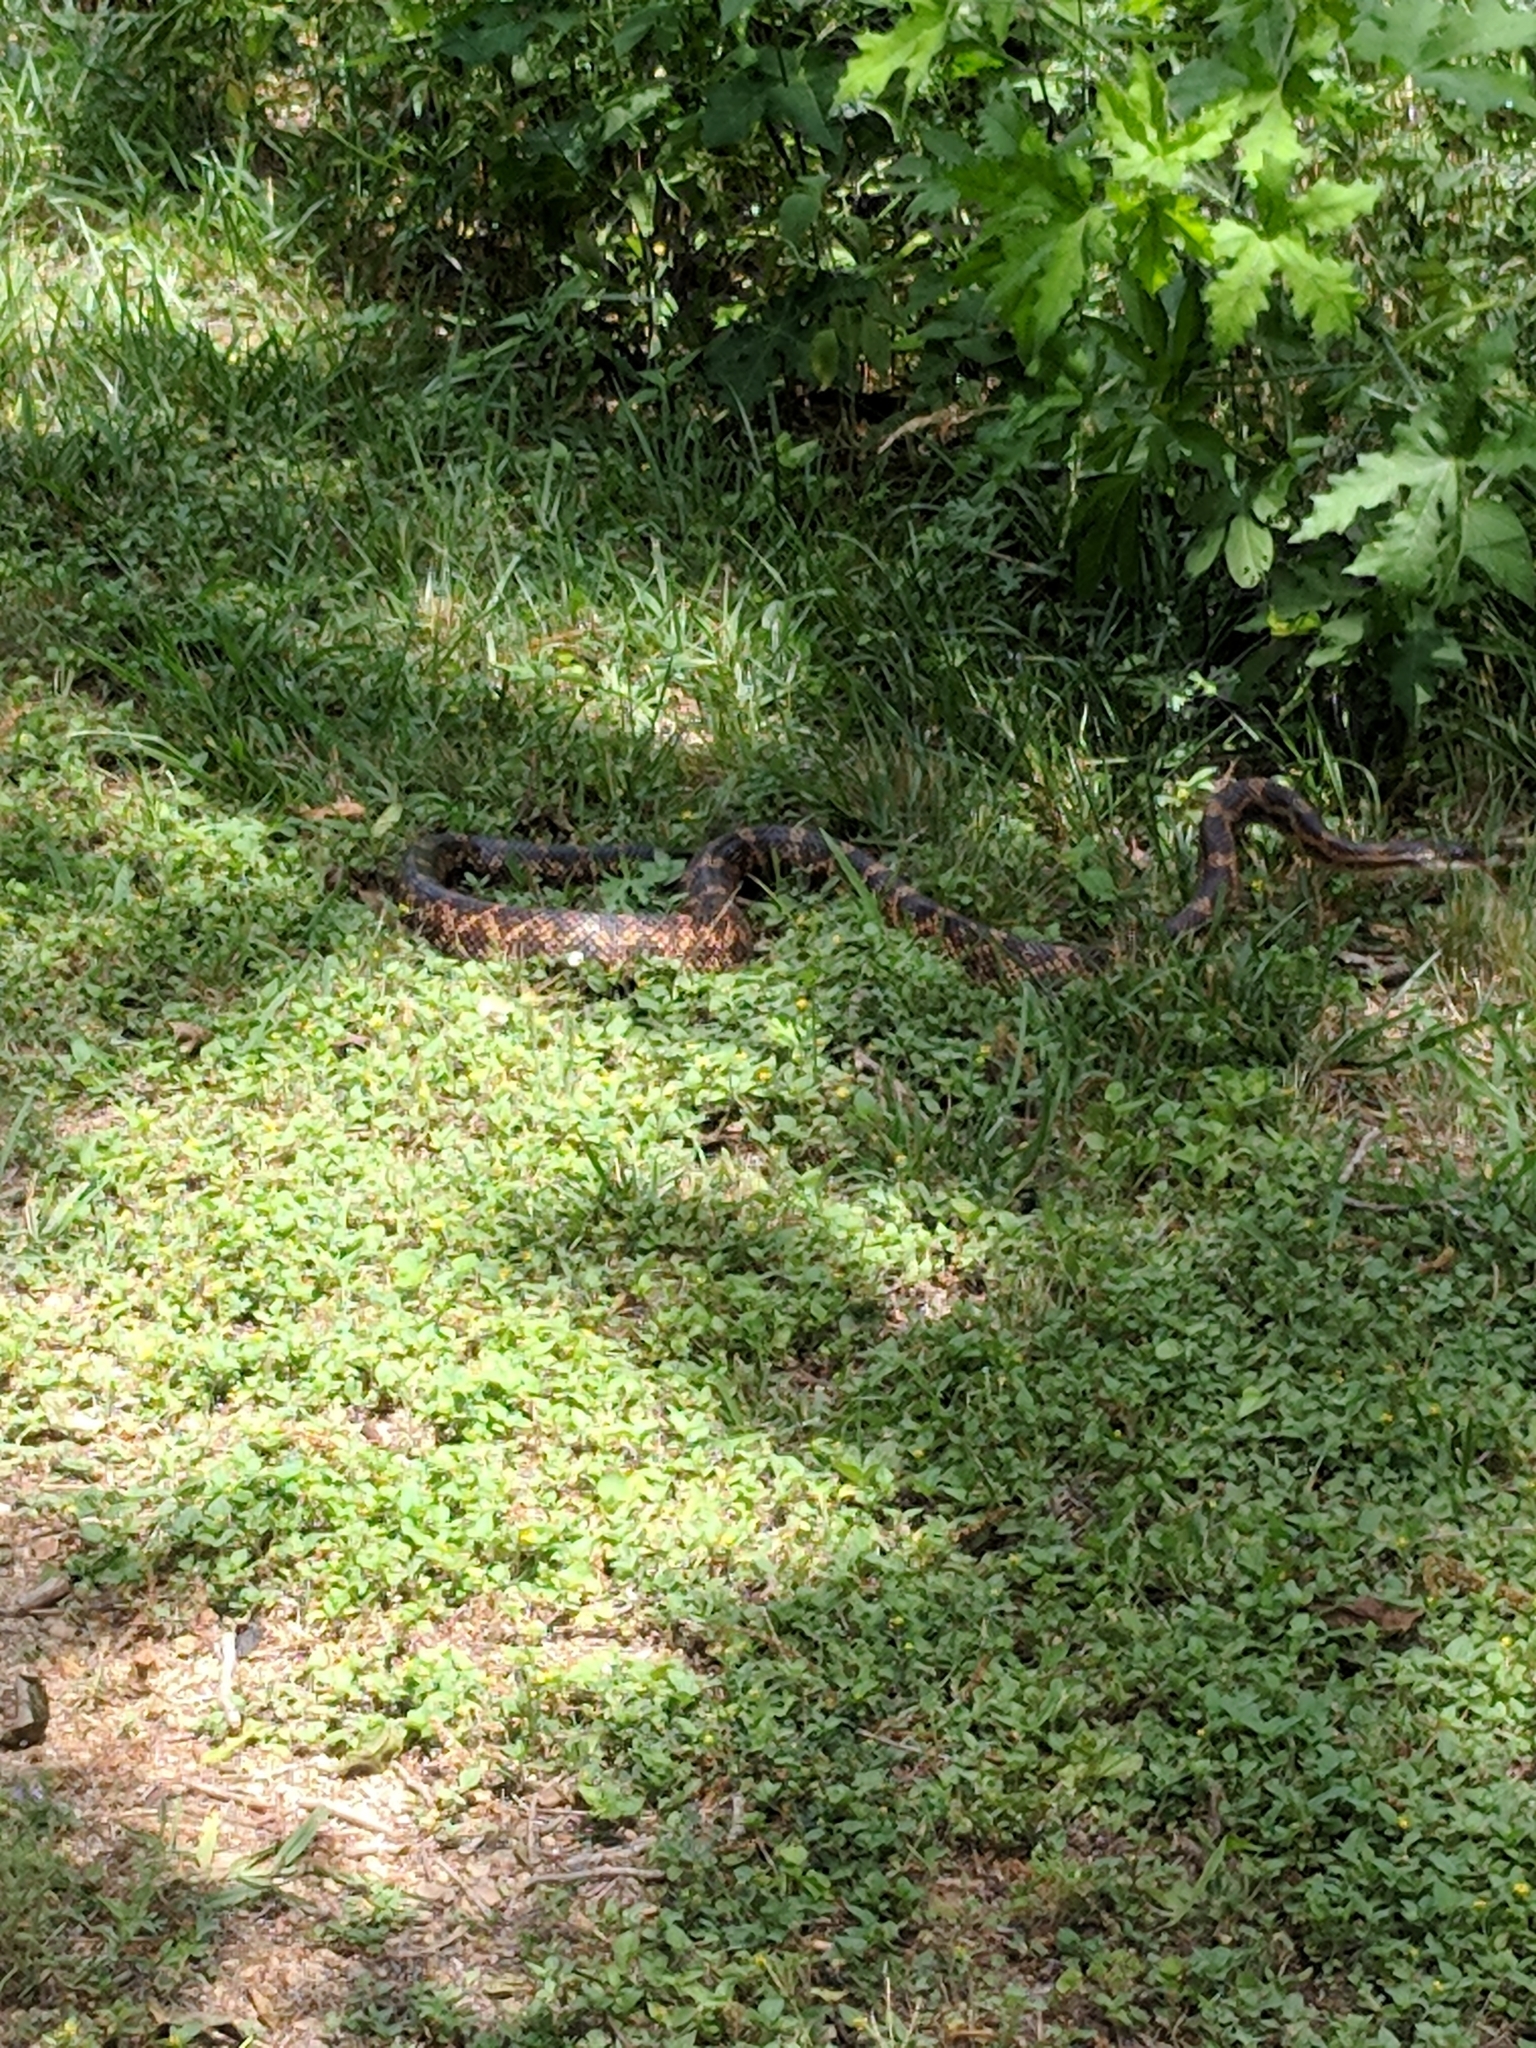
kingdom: Animalia
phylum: Chordata
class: Squamata
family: Colubridae
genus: Pantherophis
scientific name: Pantherophis obsoletus
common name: Black rat snake
